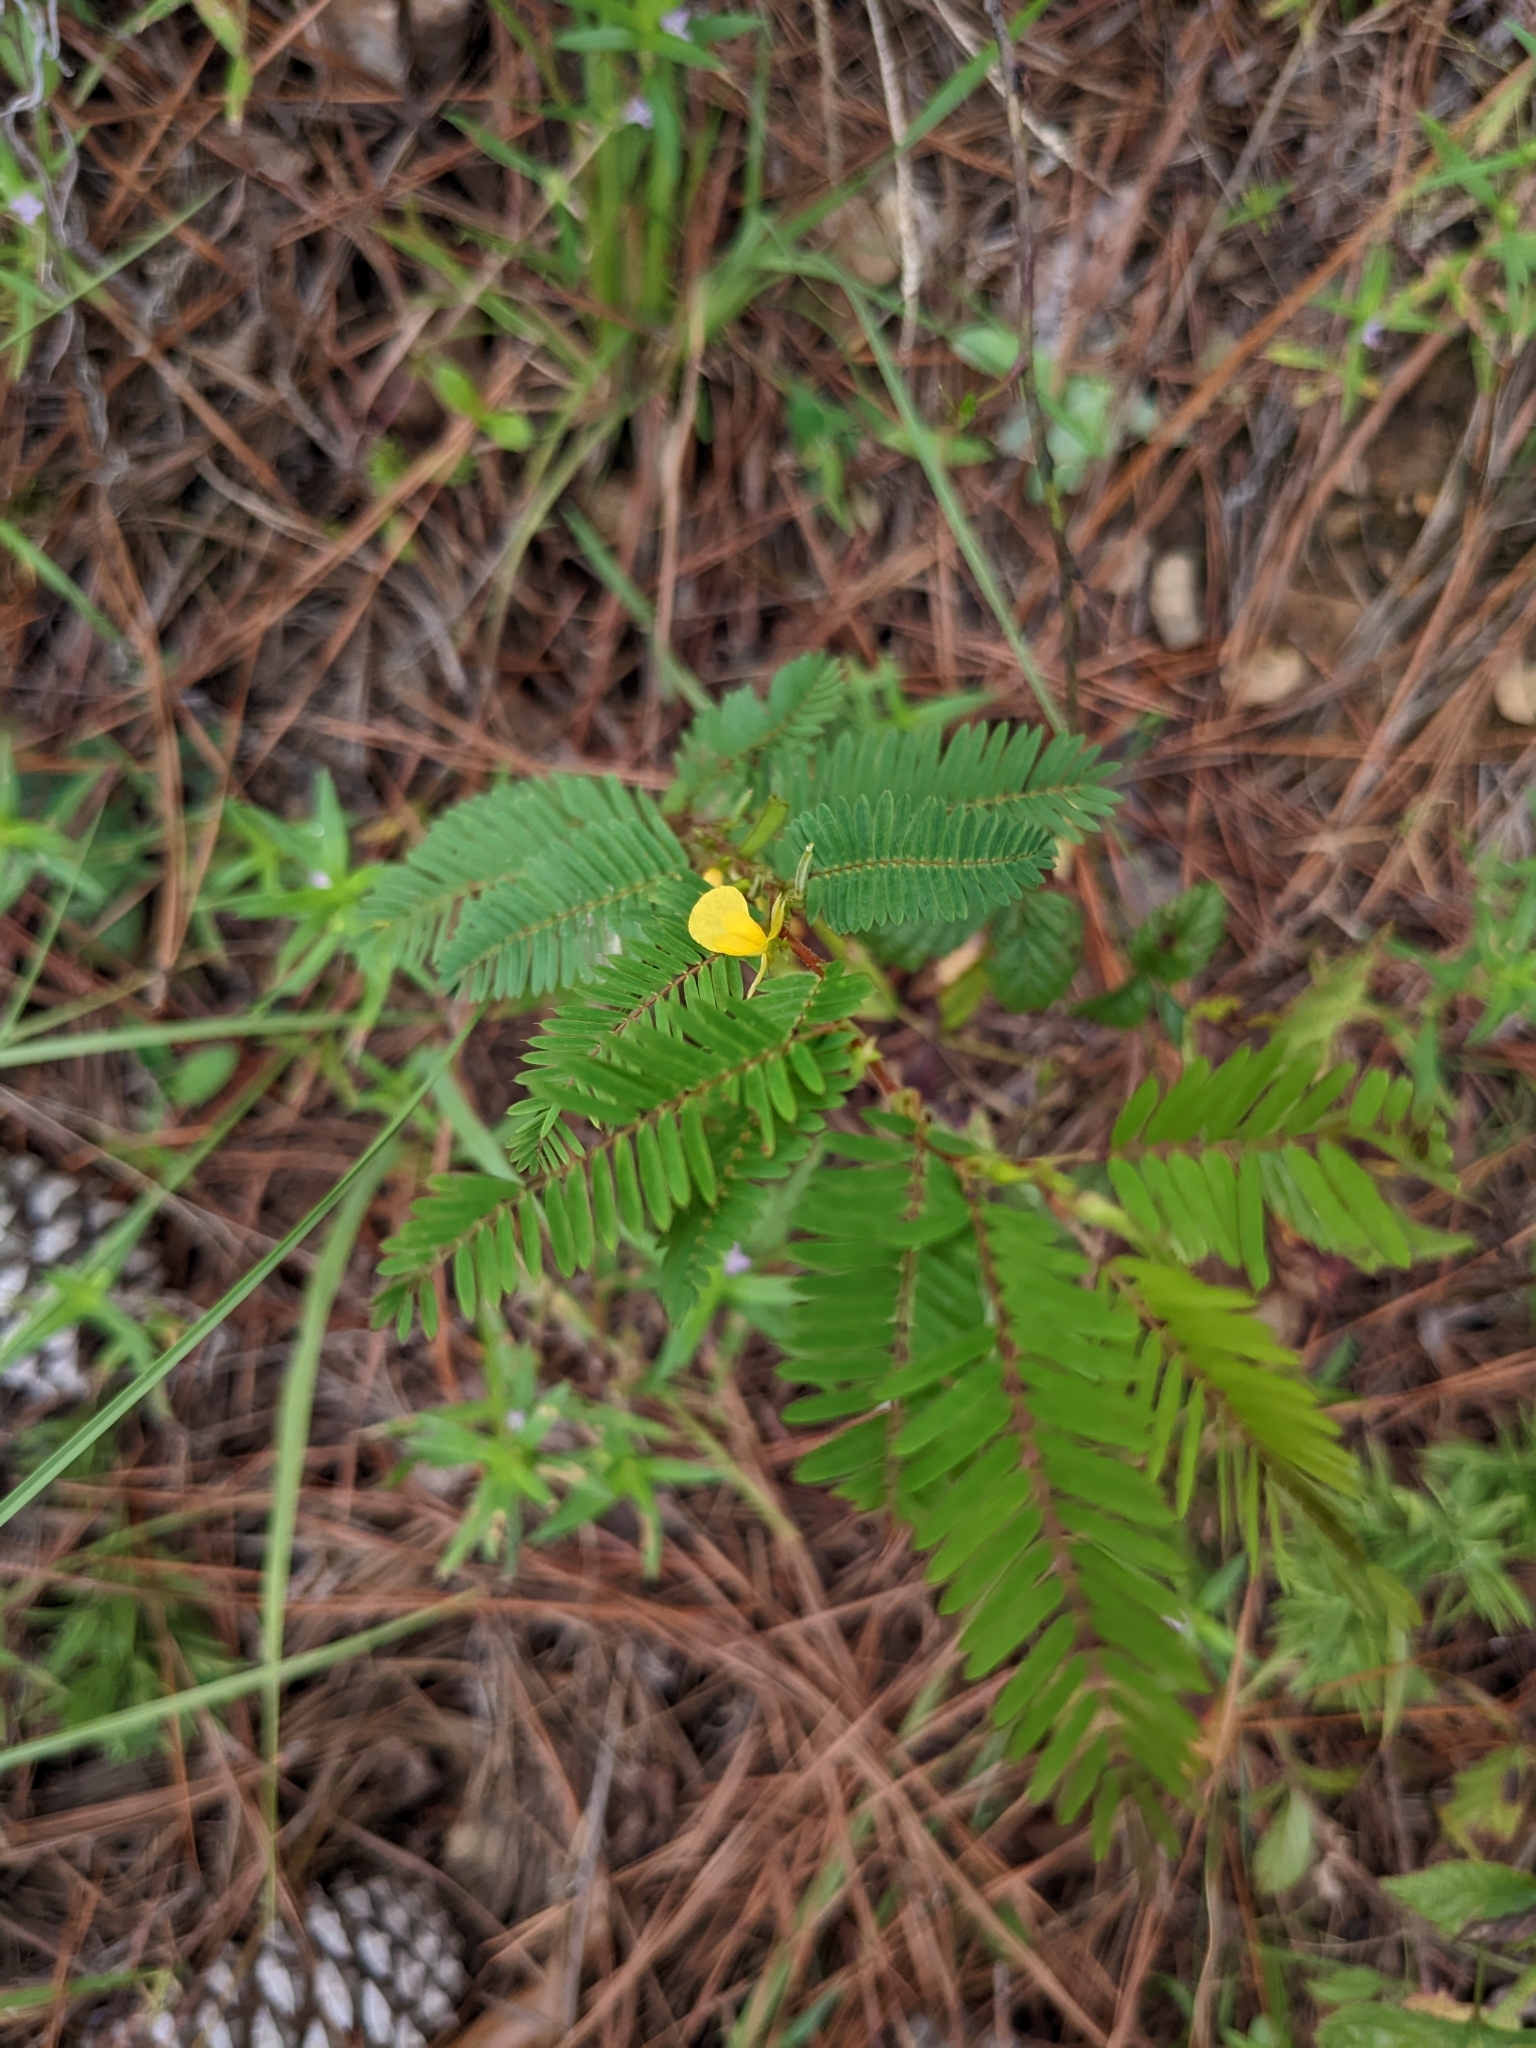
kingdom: Plantae
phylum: Tracheophyta
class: Magnoliopsida
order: Fabales
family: Fabaceae
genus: Chamaecrista
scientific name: Chamaecrista nictitans
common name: Sensitive cassia
